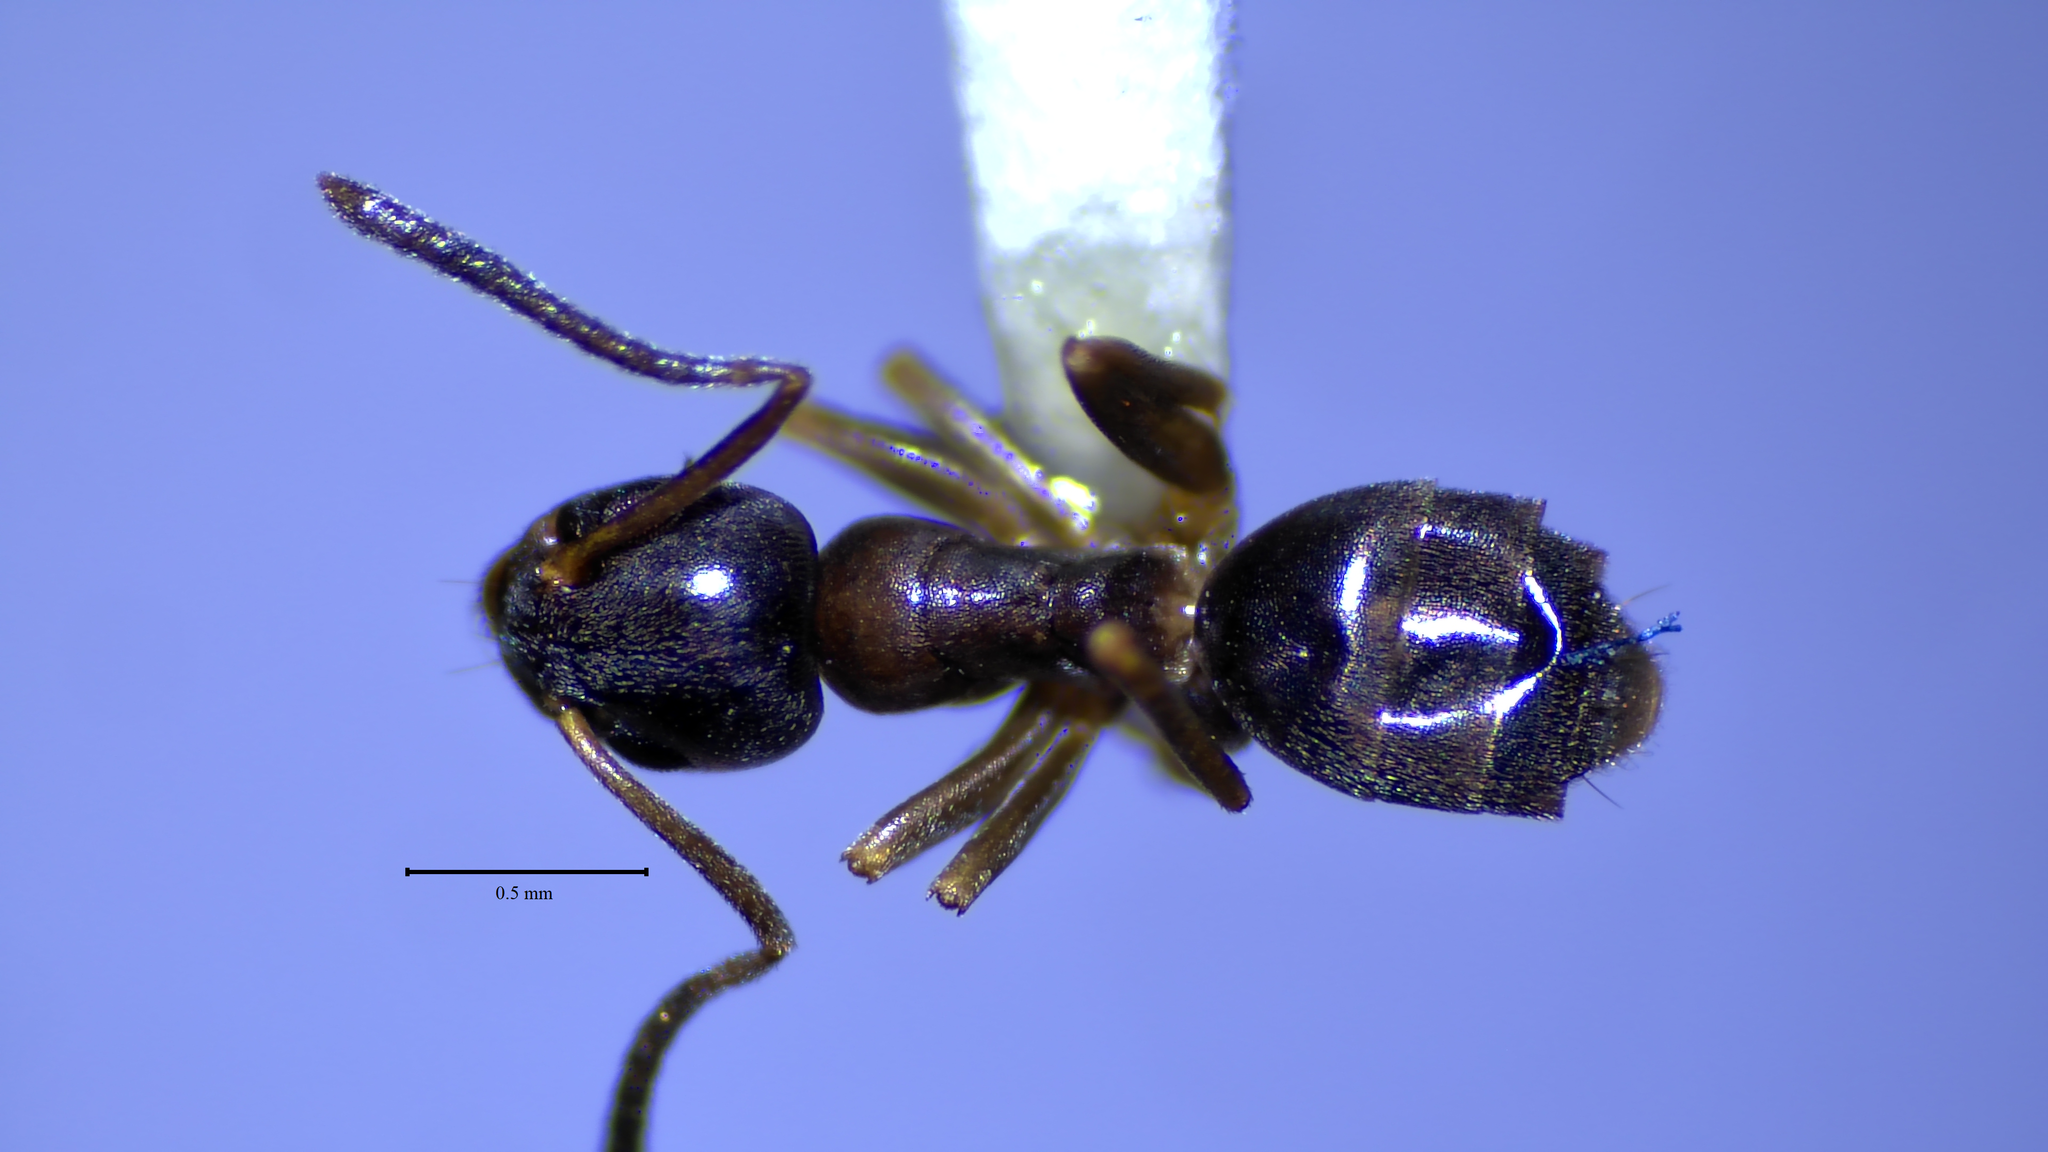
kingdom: Animalia
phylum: Arthropoda
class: Insecta
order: Hymenoptera
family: Formicidae
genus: Tapinoma
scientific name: Tapinoma sessile
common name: Odorous house ant
